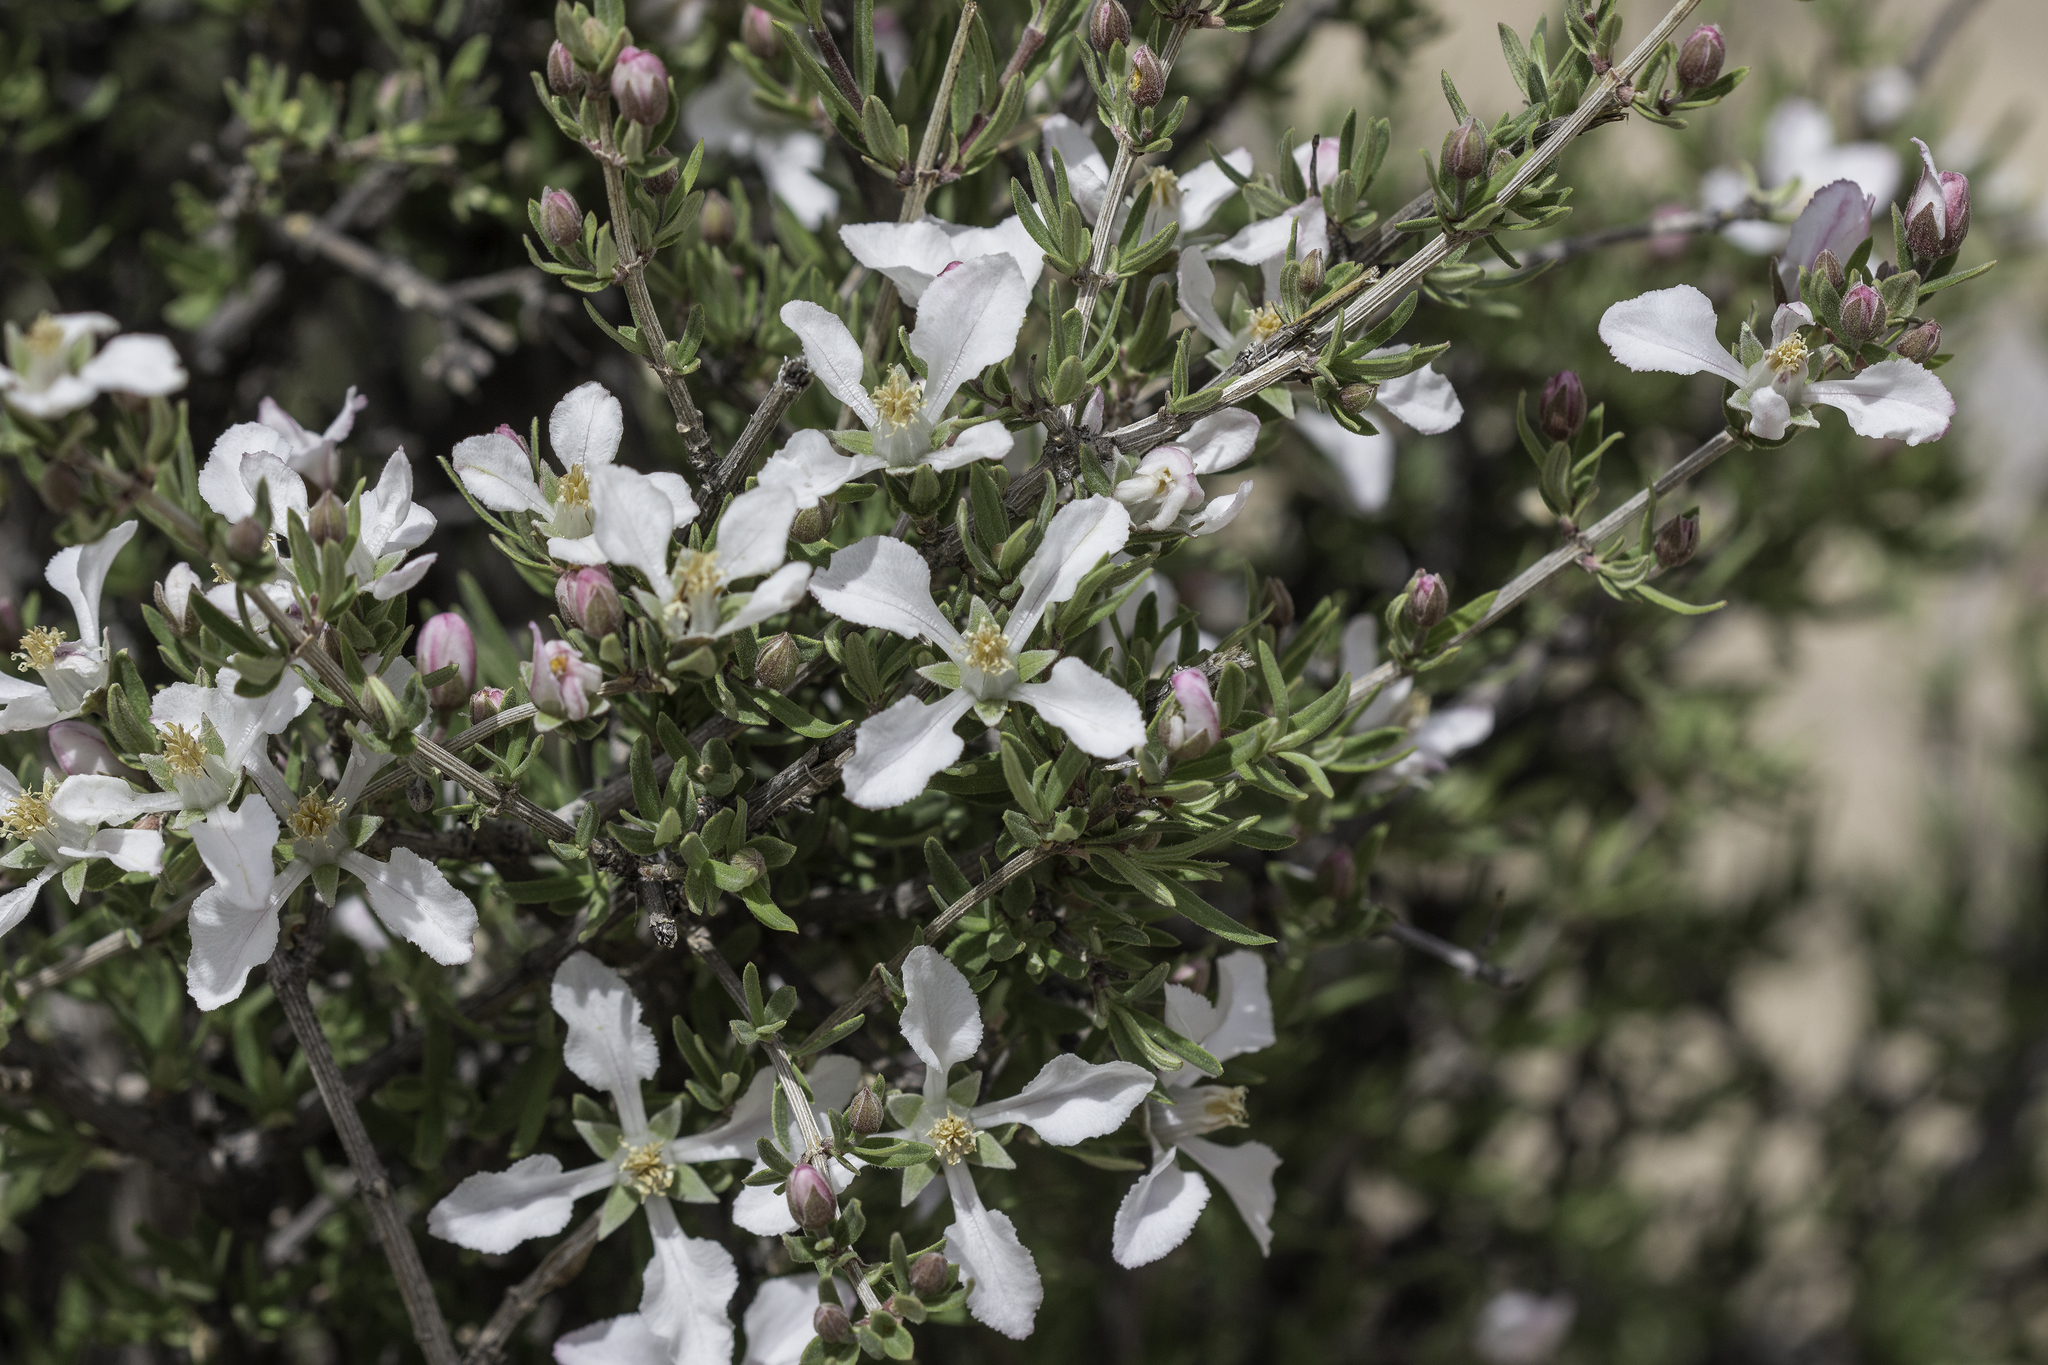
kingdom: Plantae
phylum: Tracheophyta
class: Magnoliopsida
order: Cornales
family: Hydrangeaceae
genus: Fendlera
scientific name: Fendlera rupicola
